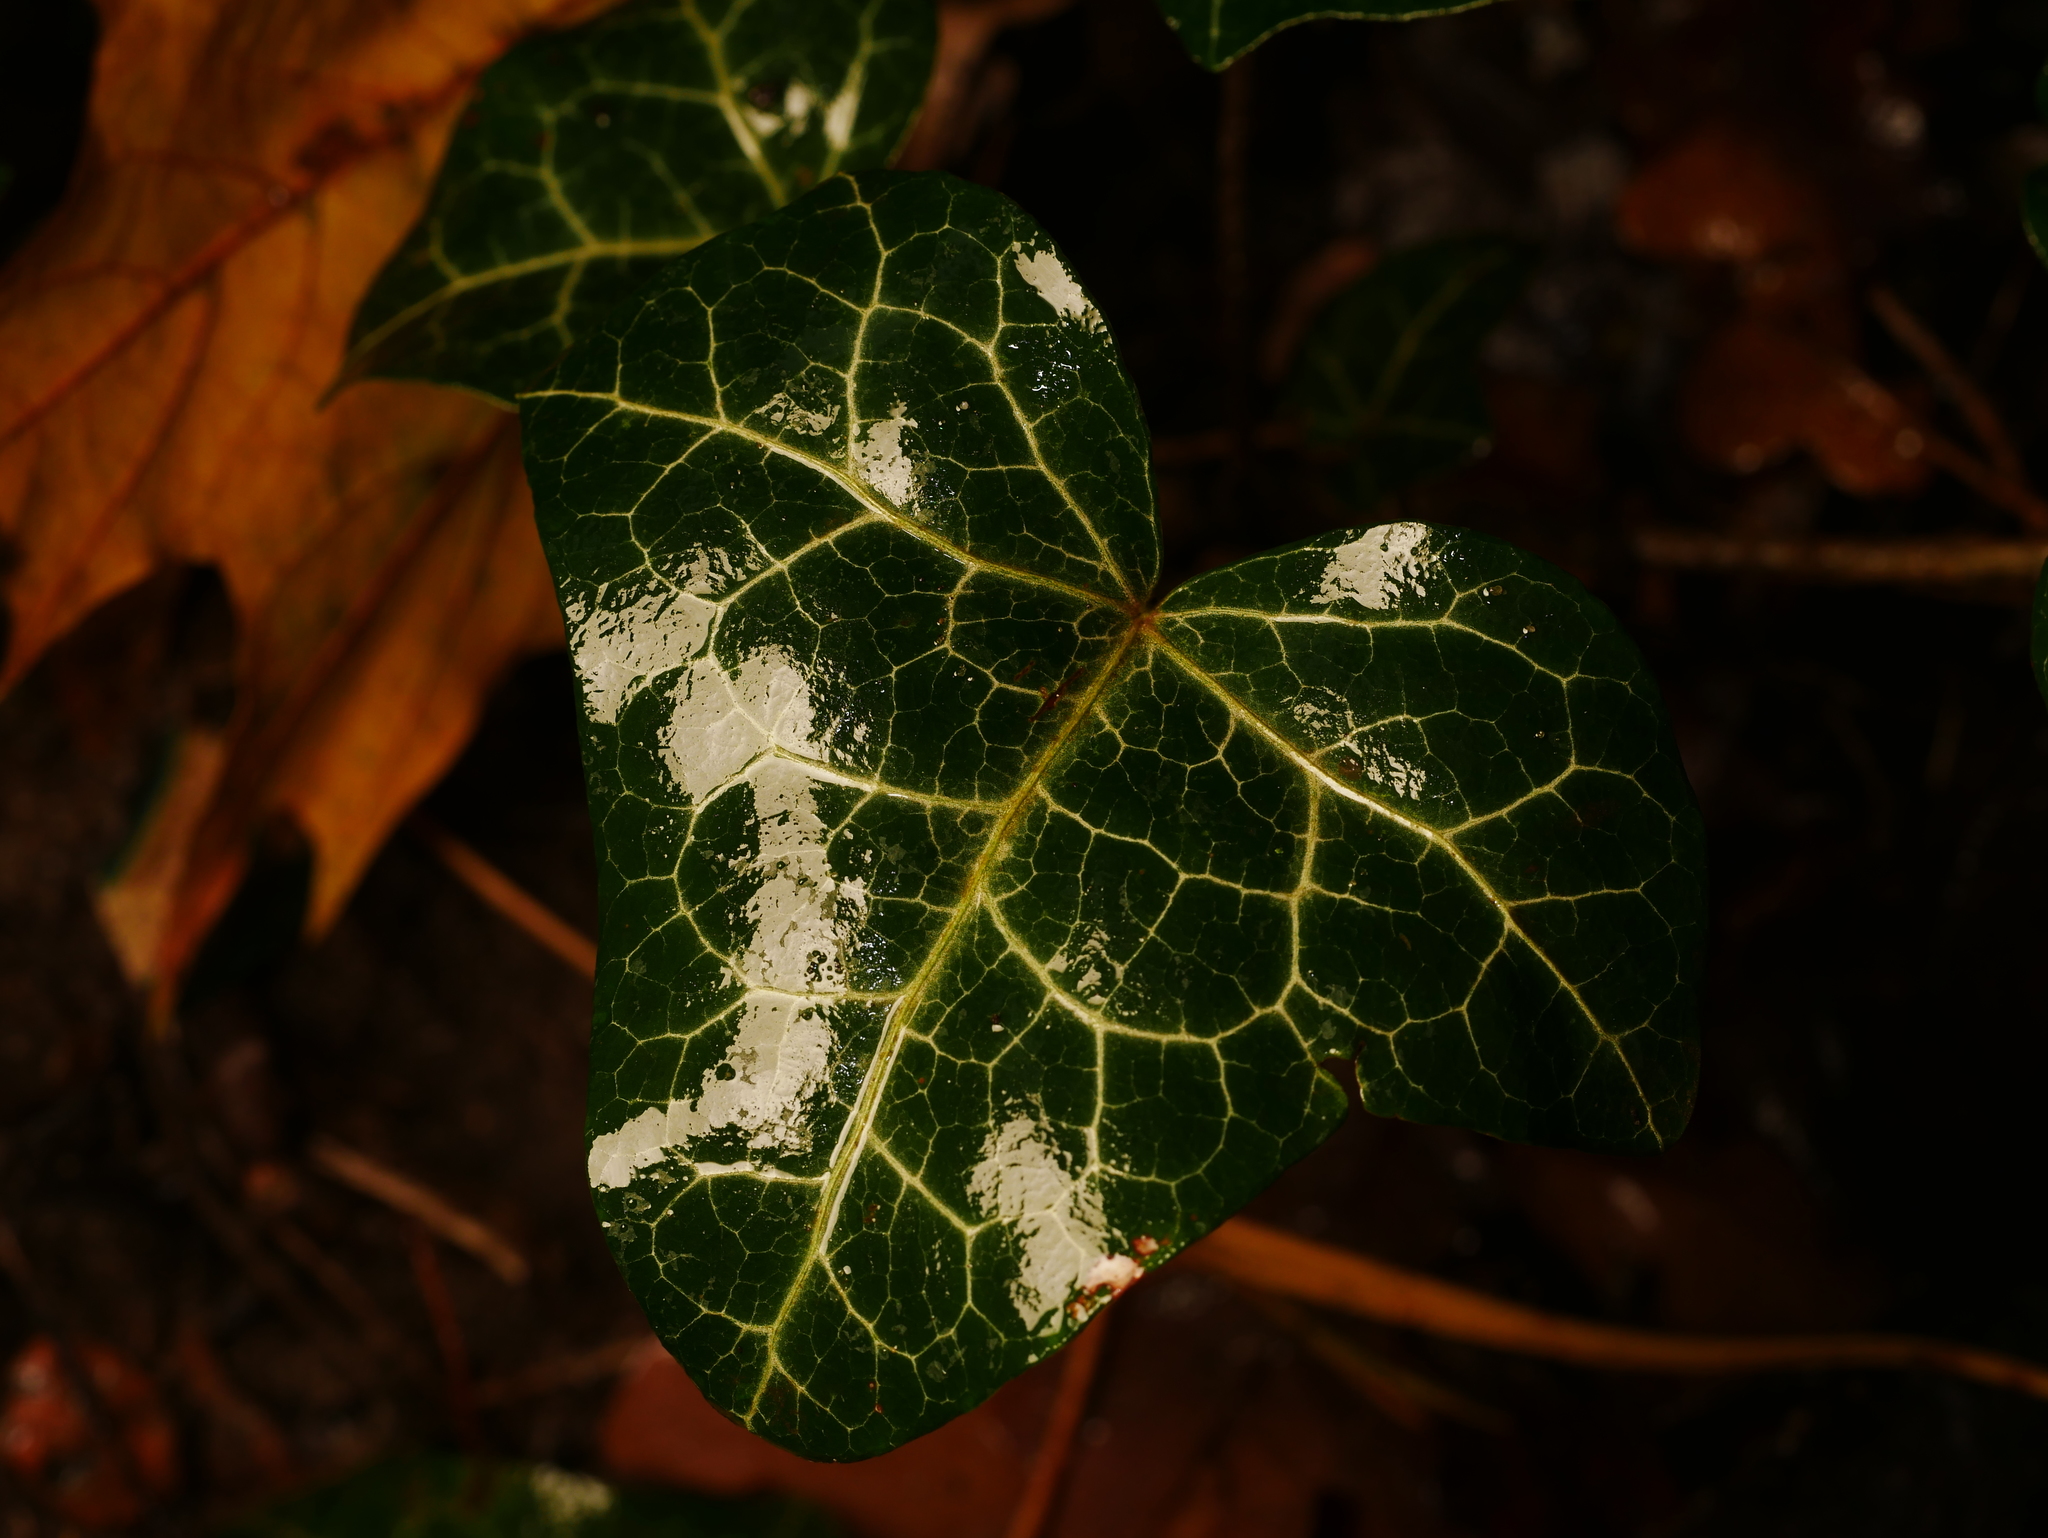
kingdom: Plantae
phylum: Tracheophyta
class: Magnoliopsida
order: Apiales
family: Araliaceae
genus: Hedera
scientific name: Hedera helix
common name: Ivy
